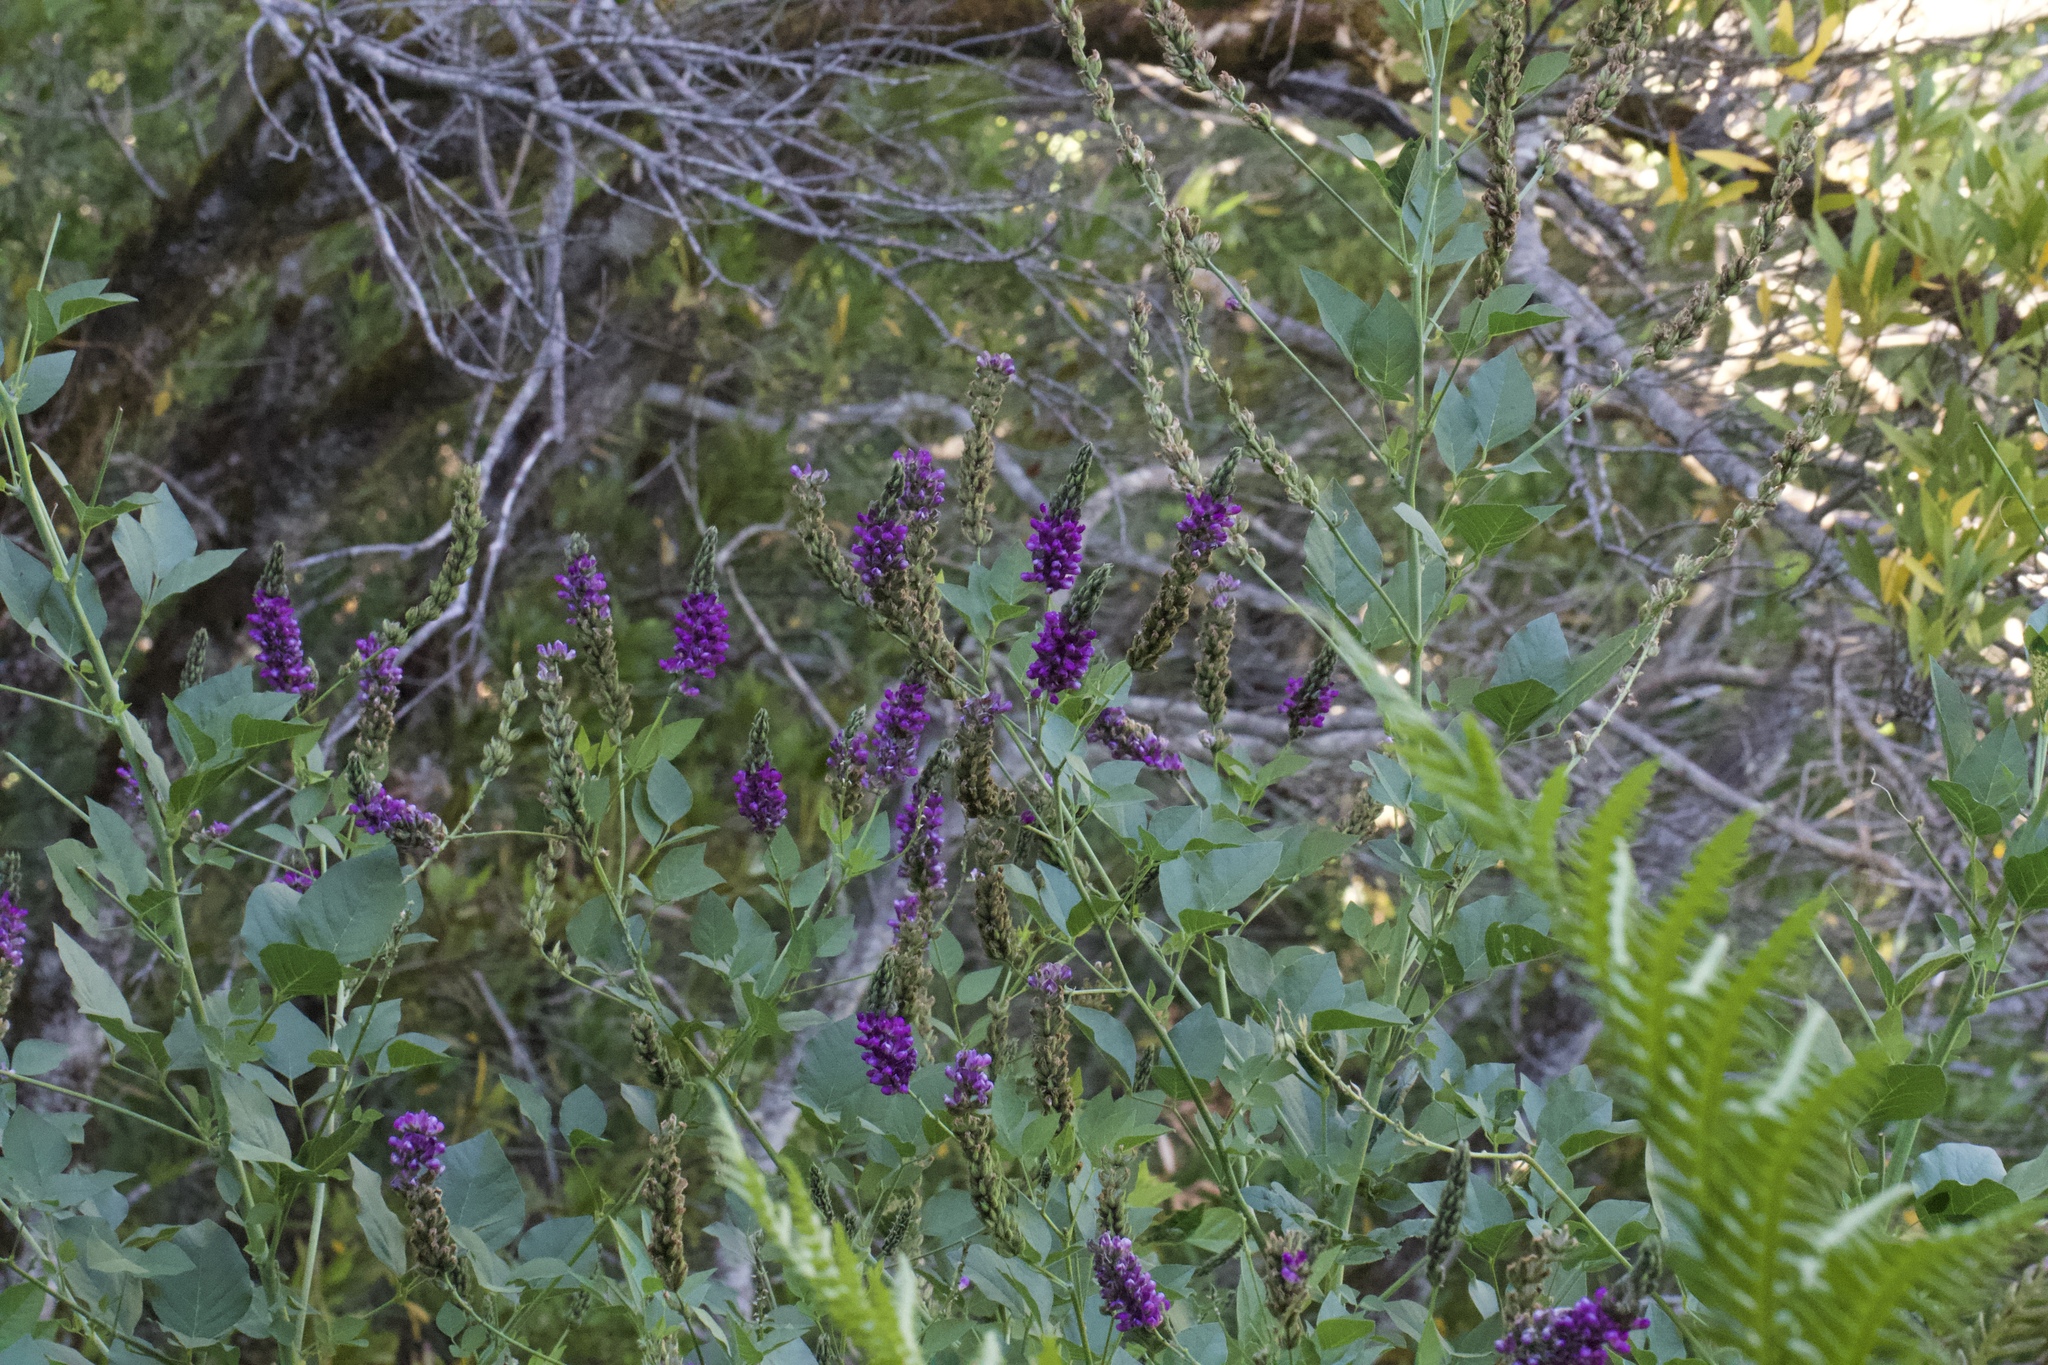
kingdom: Plantae
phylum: Tracheophyta
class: Magnoliopsida
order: Fabales
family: Fabaceae
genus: Hoita
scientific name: Hoita macrostachya
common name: Leatherroot
